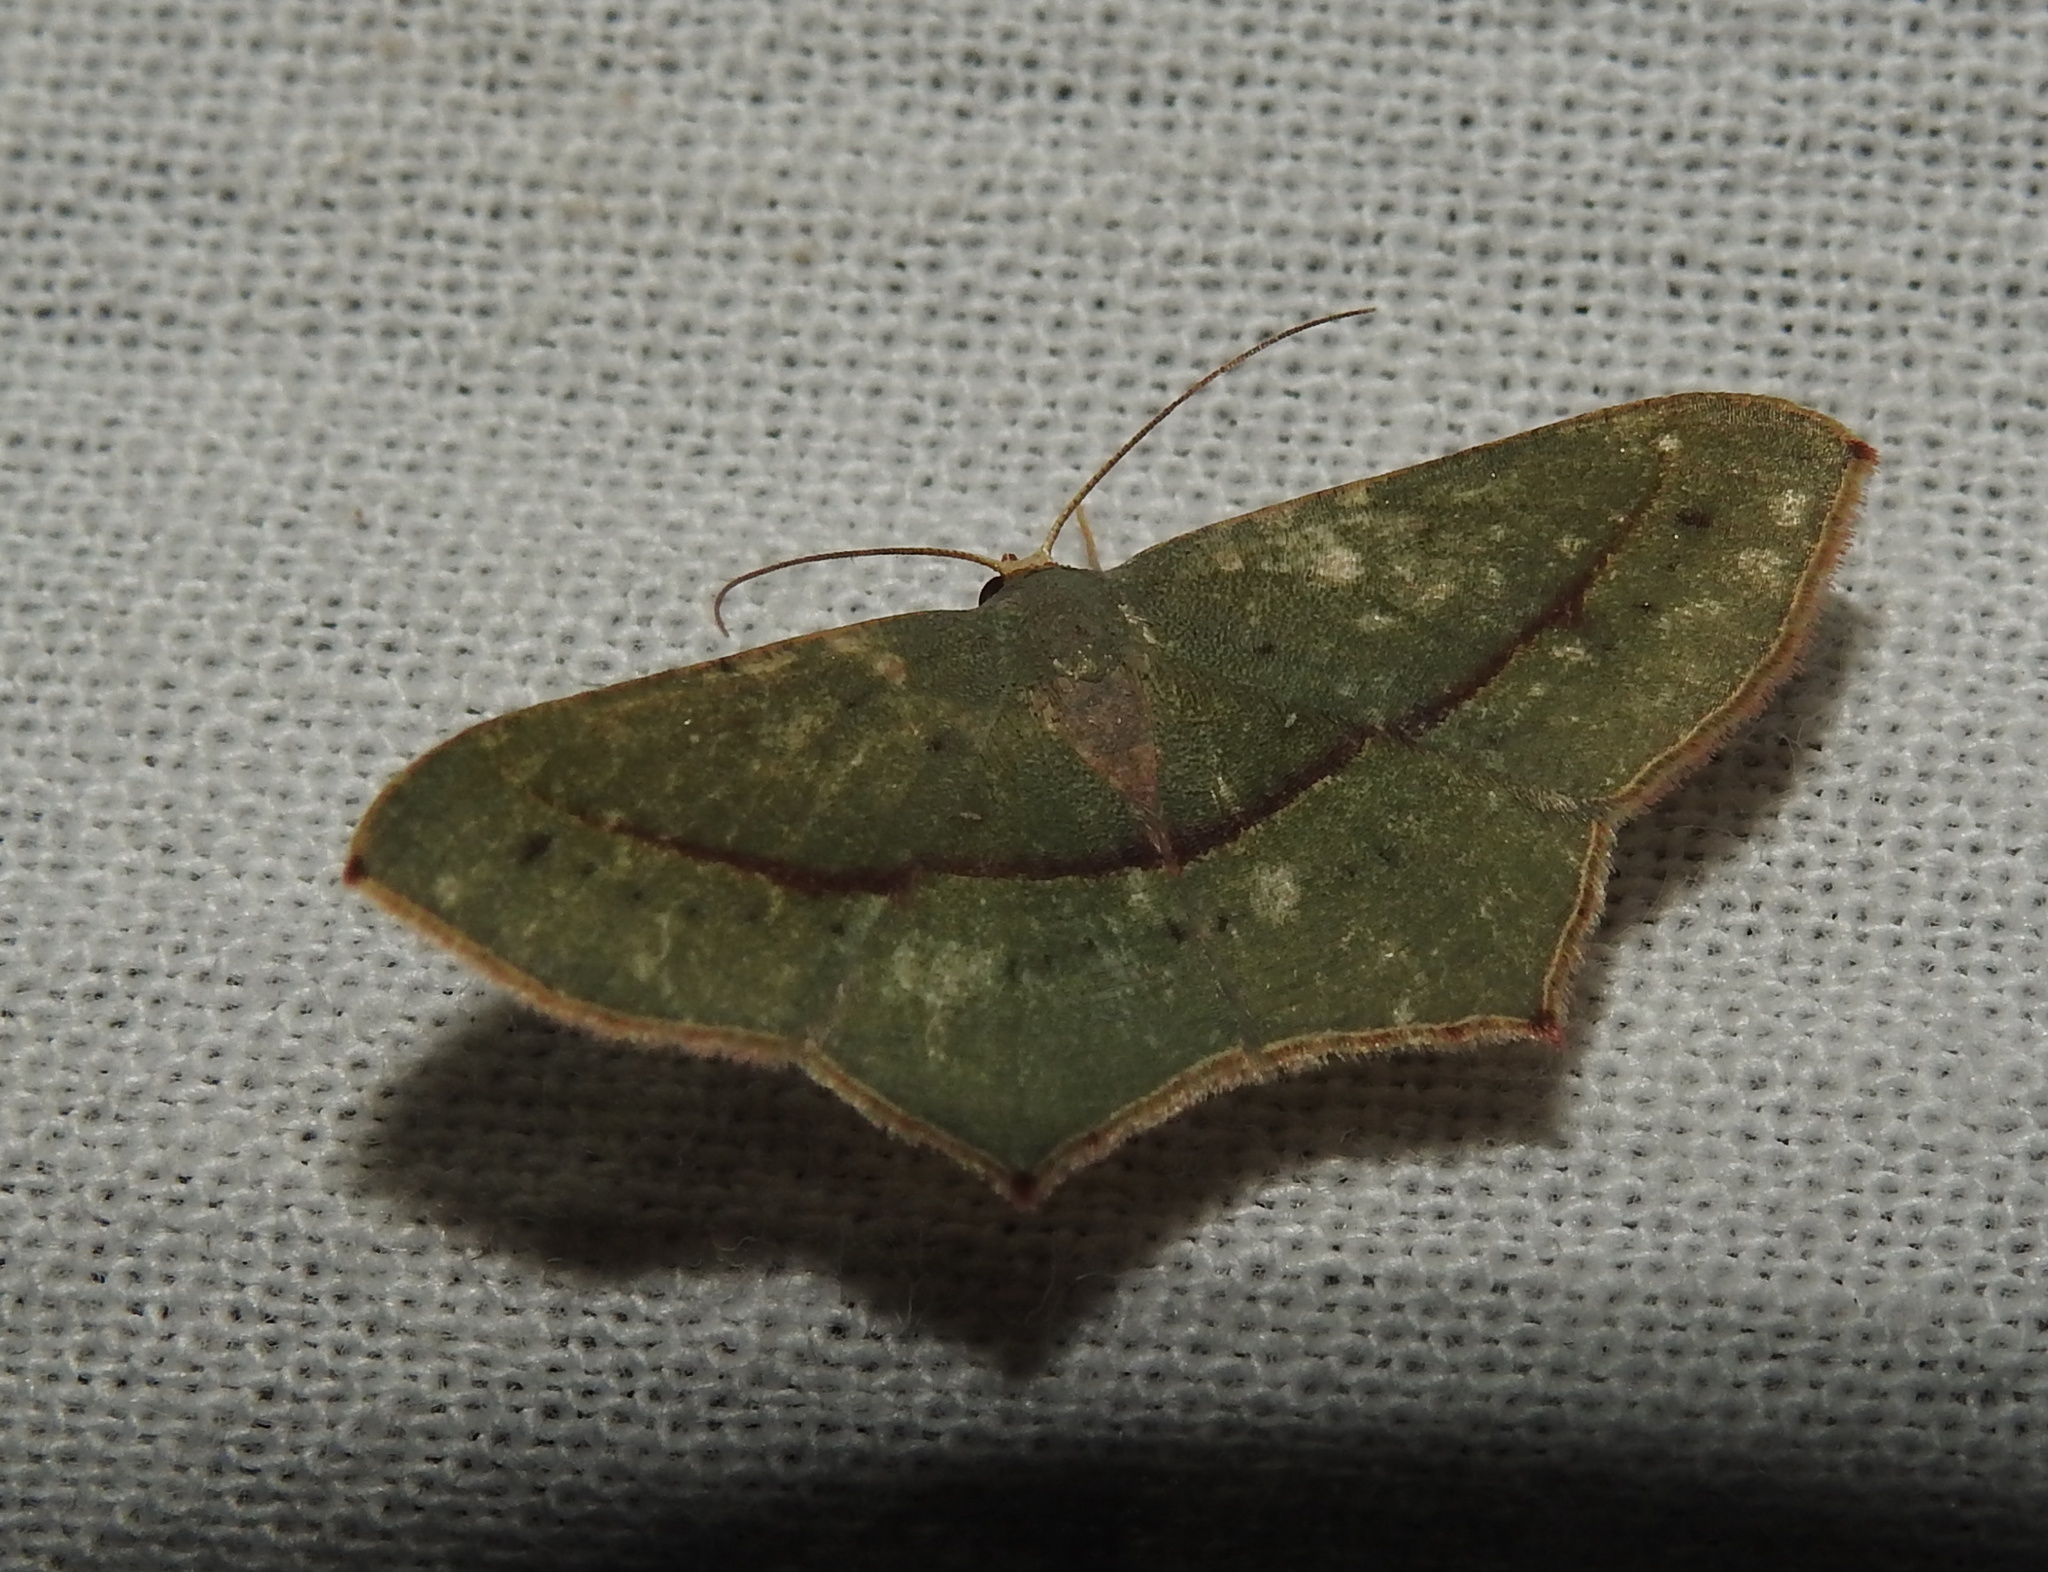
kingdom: Animalia
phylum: Arthropoda
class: Insecta
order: Lepidoptera
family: Geometridae
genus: Traminda
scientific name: Traminda mundissima
